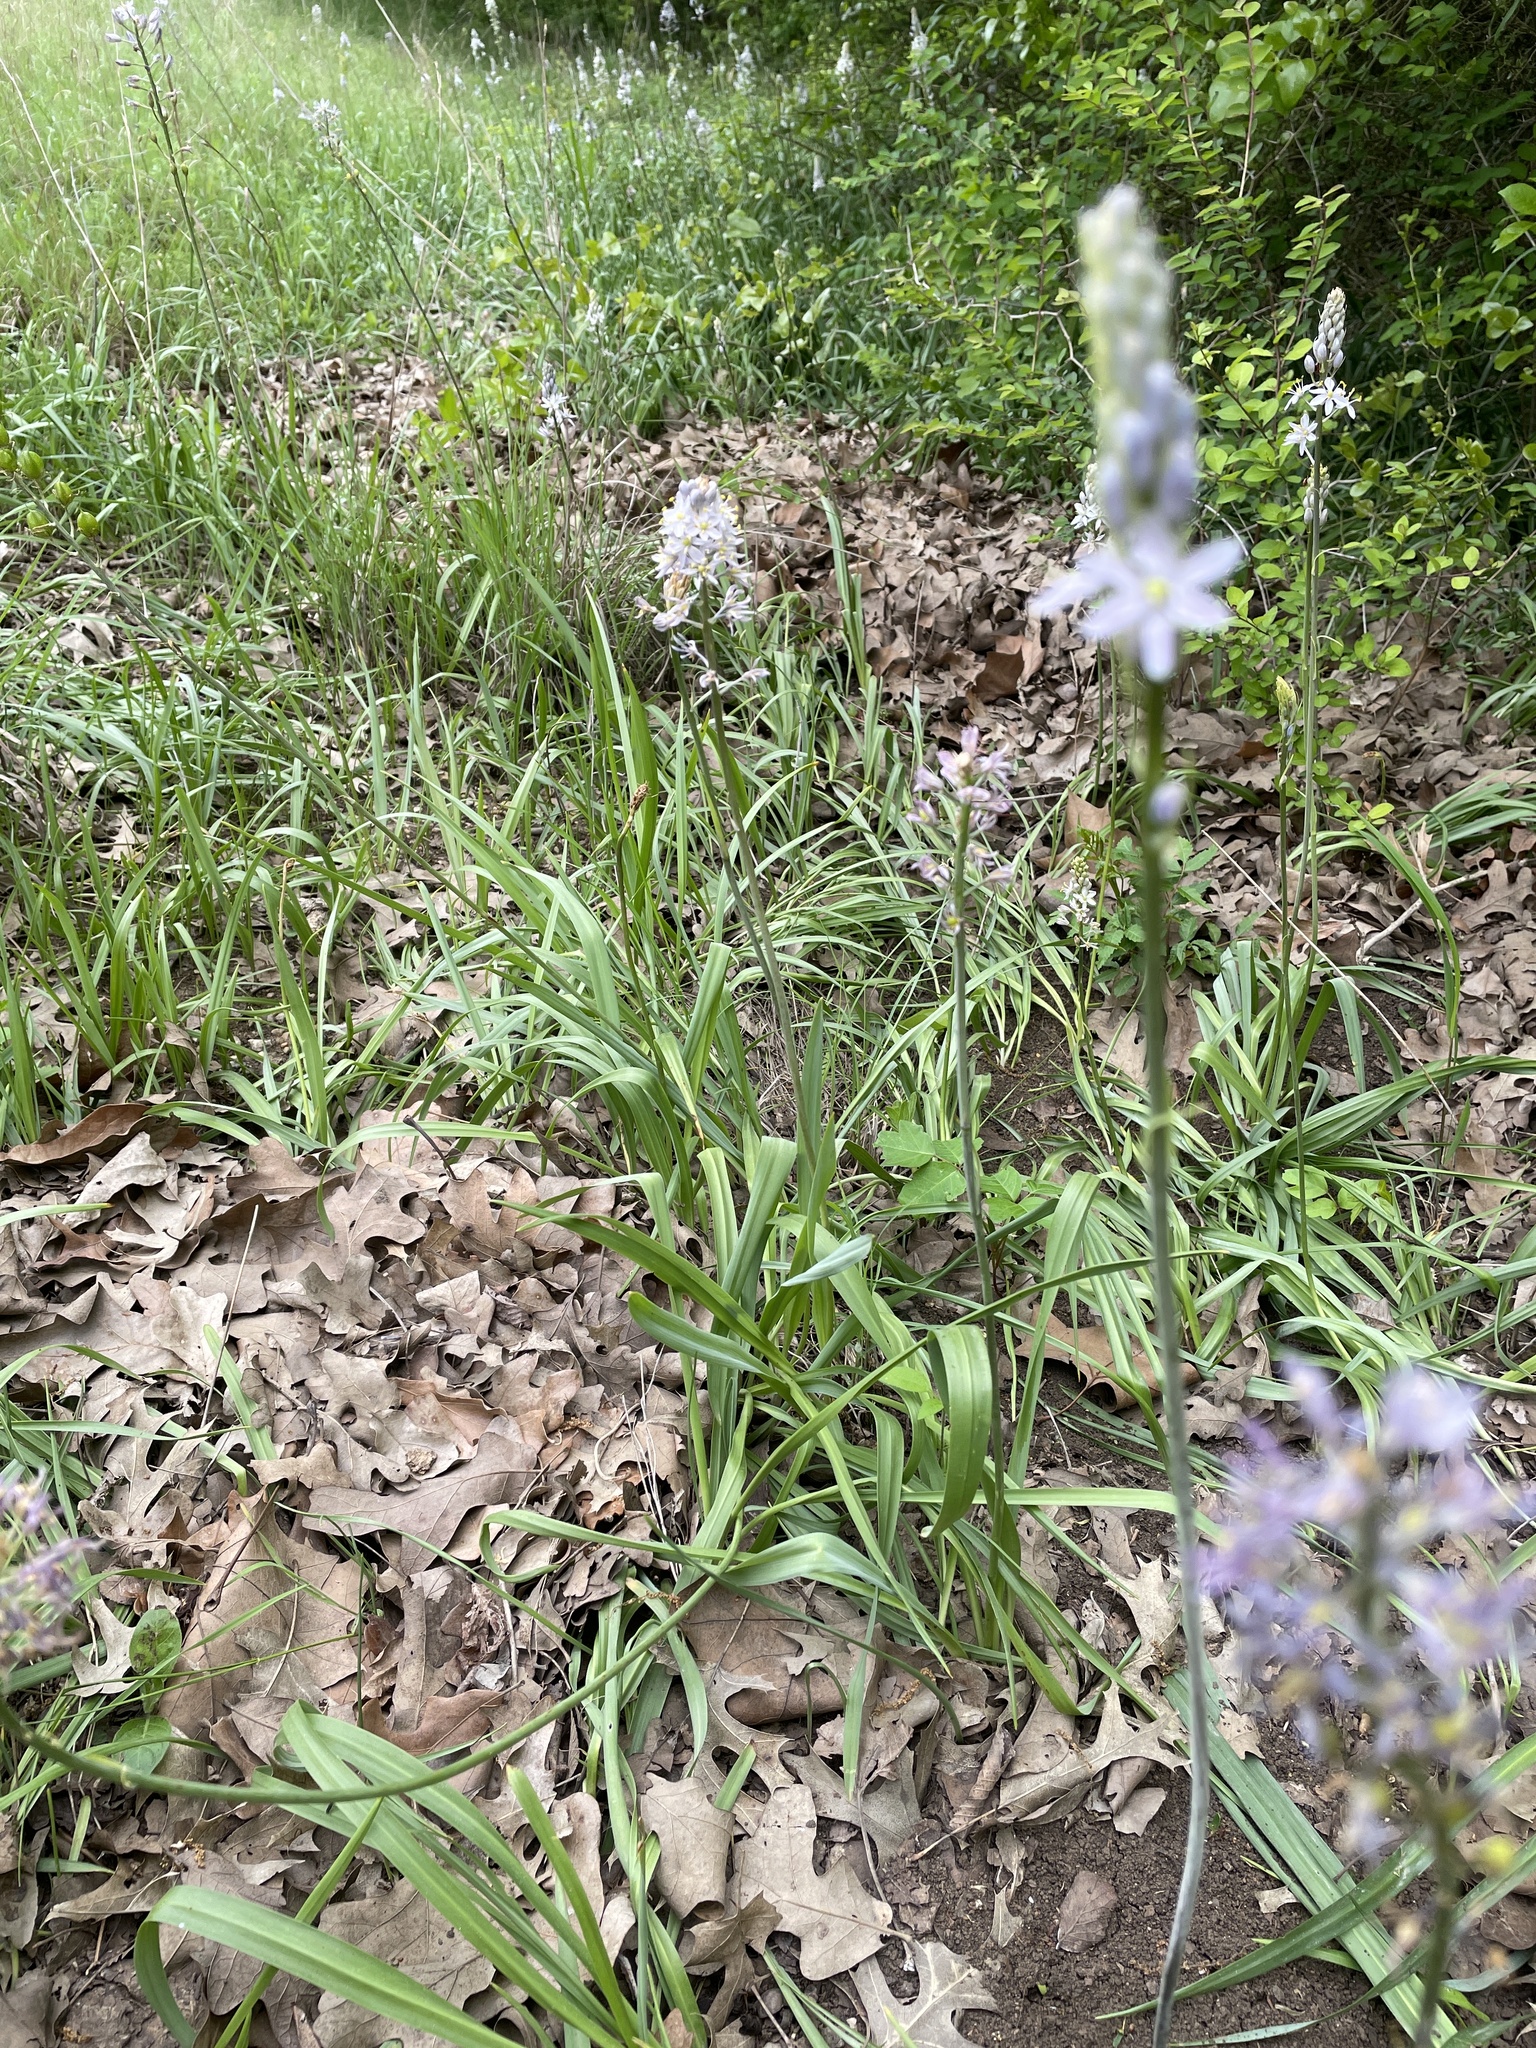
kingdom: Plantae
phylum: Tracheophyta
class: Liliopsida
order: Asparagales
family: Asparagaceae
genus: Camassia
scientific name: Camassia scilloides
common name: Wild hyacinth
